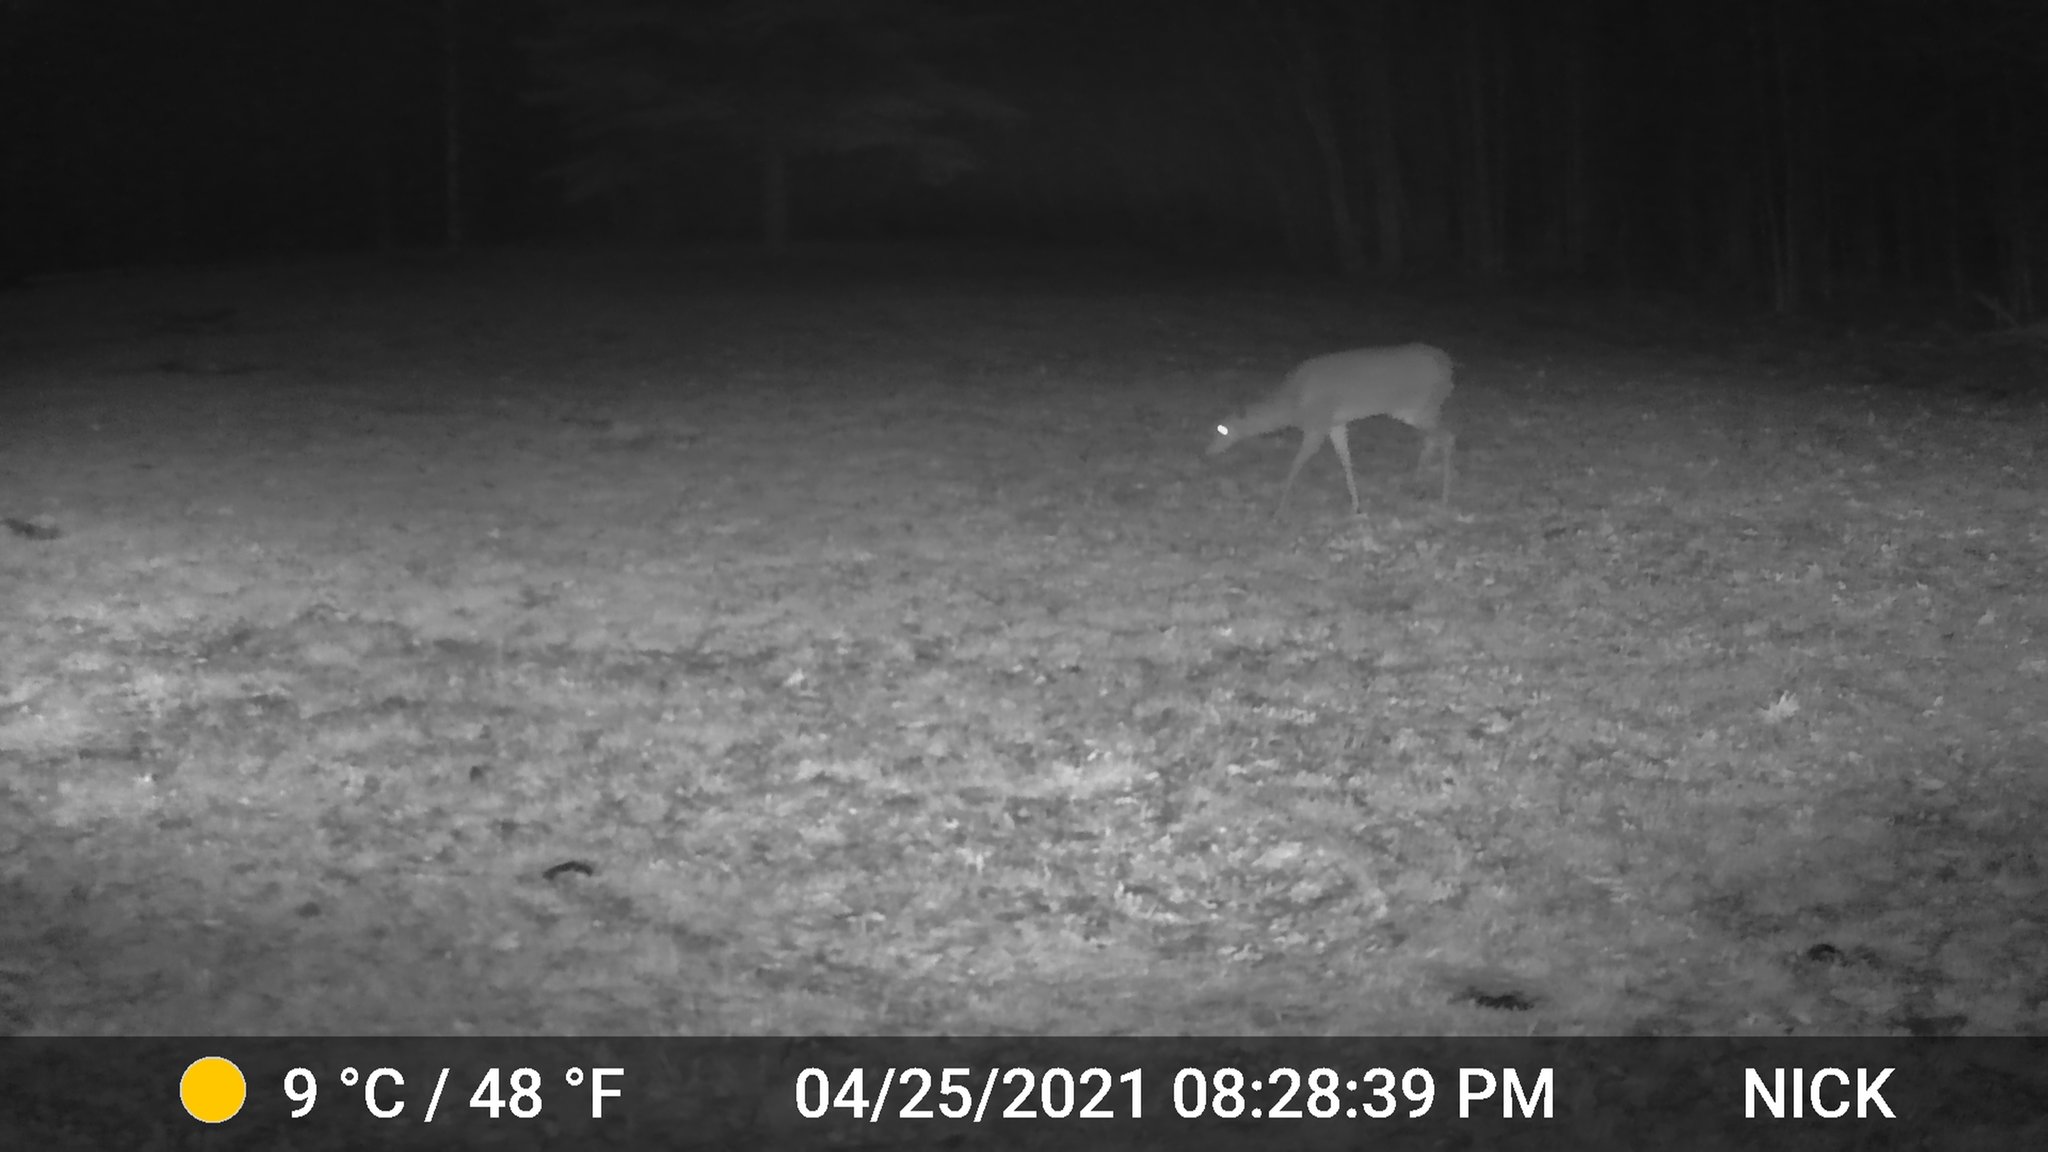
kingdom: Animalia
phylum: Chordata
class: Mammalia
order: Artiodactyla
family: Cervidae
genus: Odocoileus
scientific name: Odocoileus virginianus
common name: White-tailed deer
